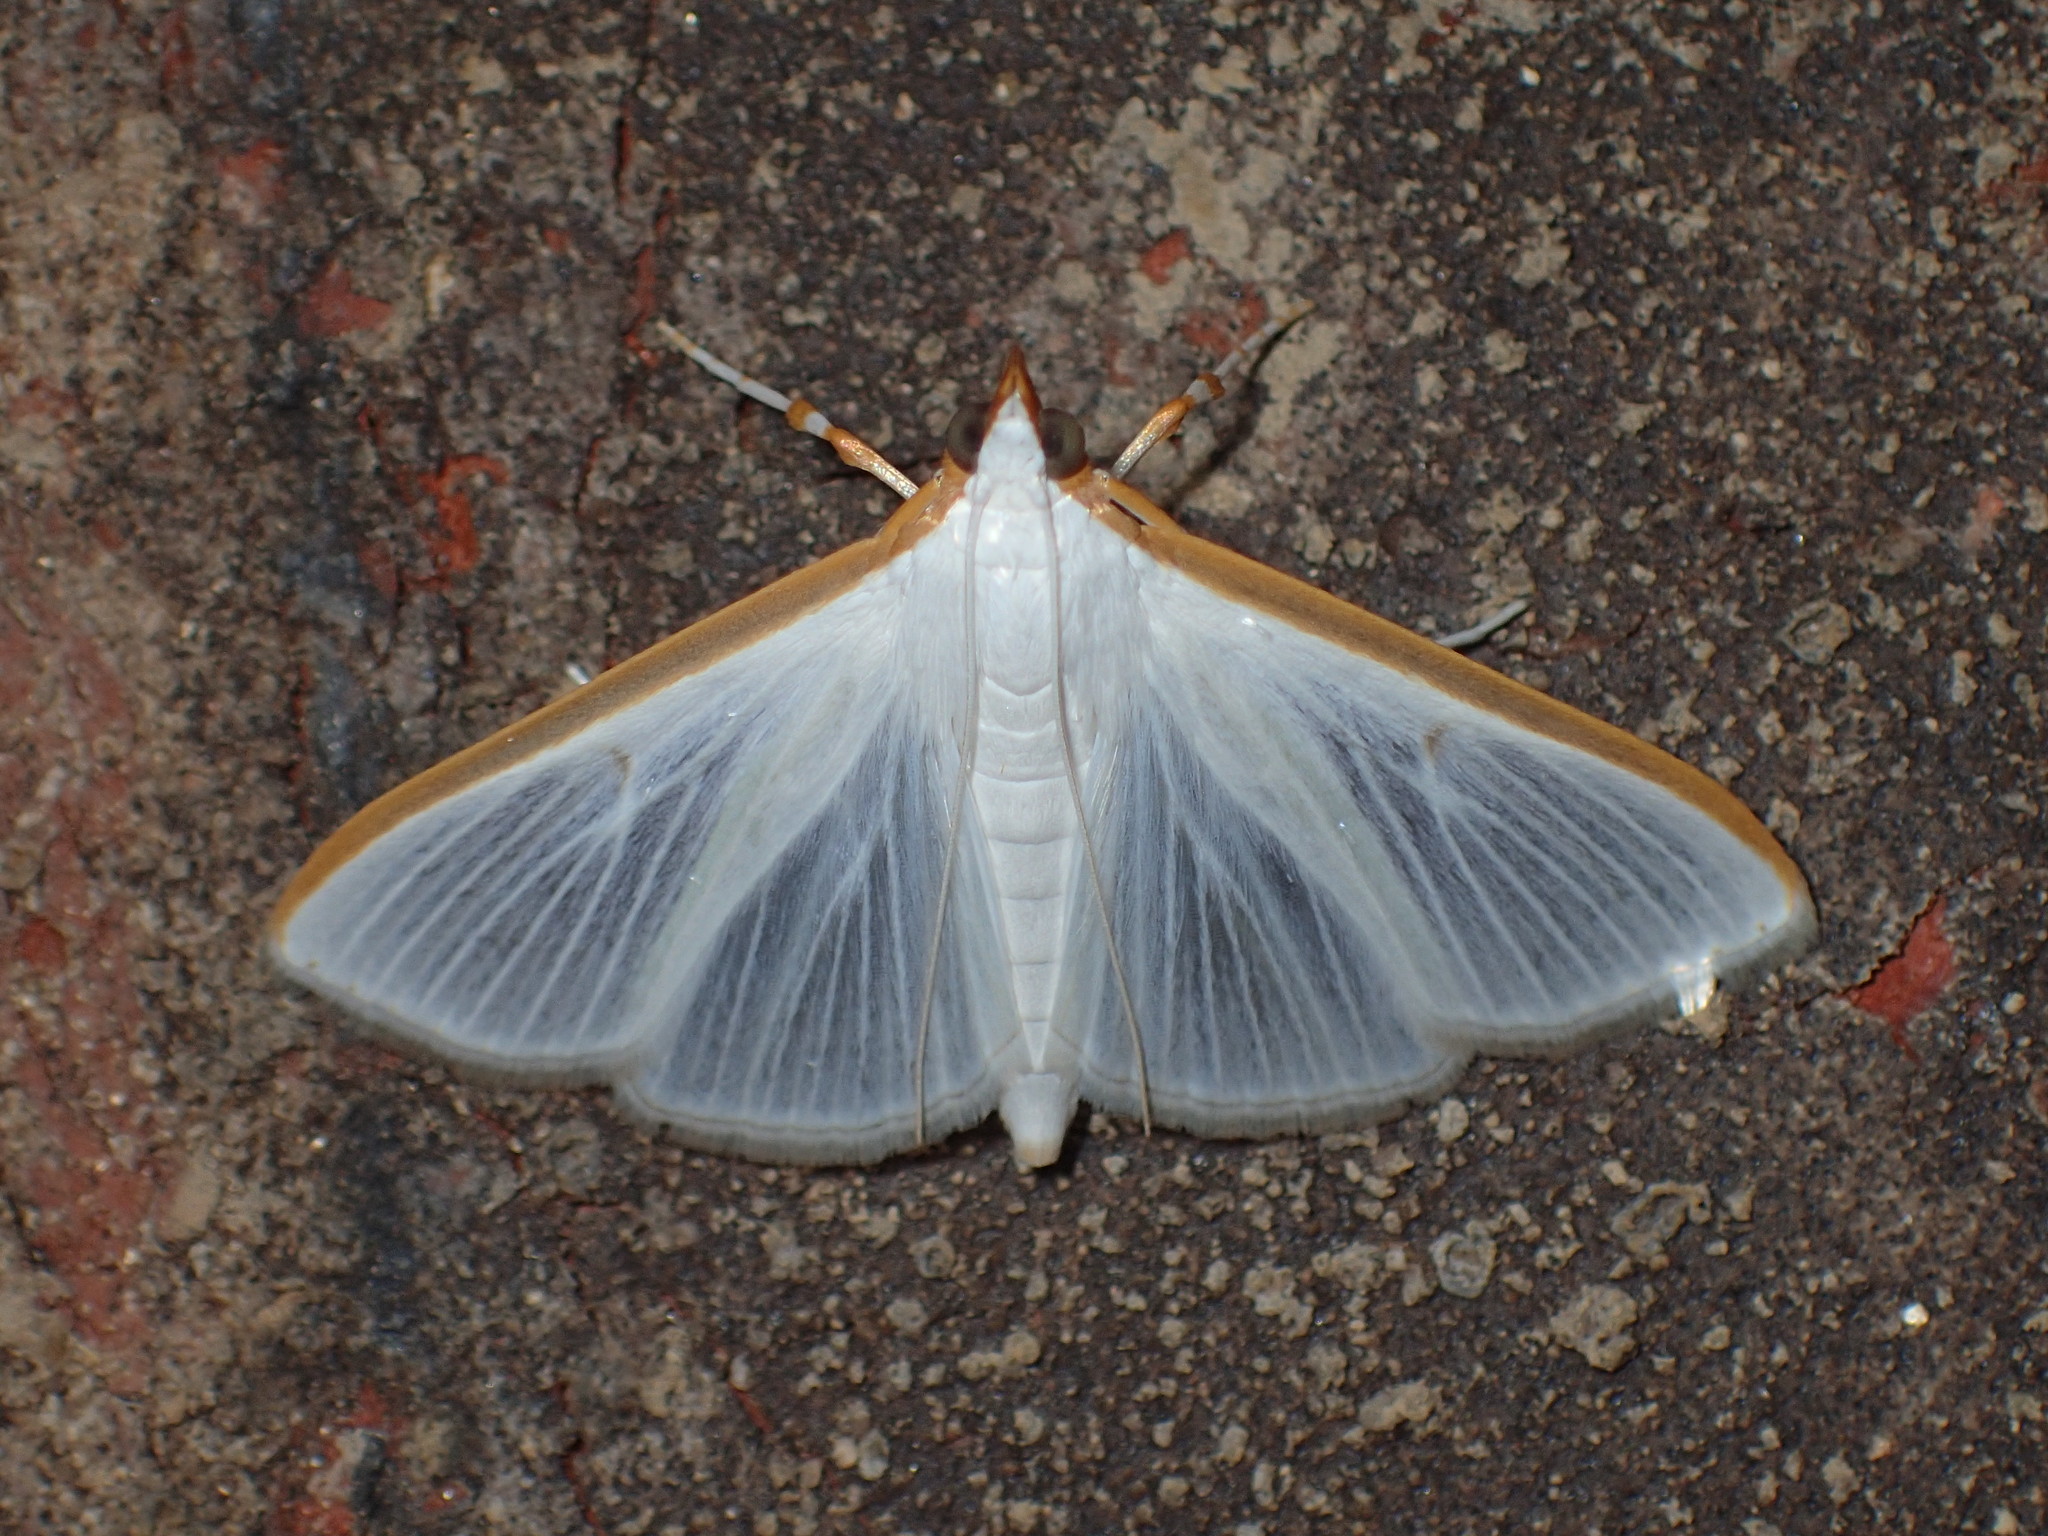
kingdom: Animalia
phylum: Arthropoda
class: Insecta
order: Lepidoptera
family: Crambidae
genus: Palpita
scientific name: Palpita kimballi
